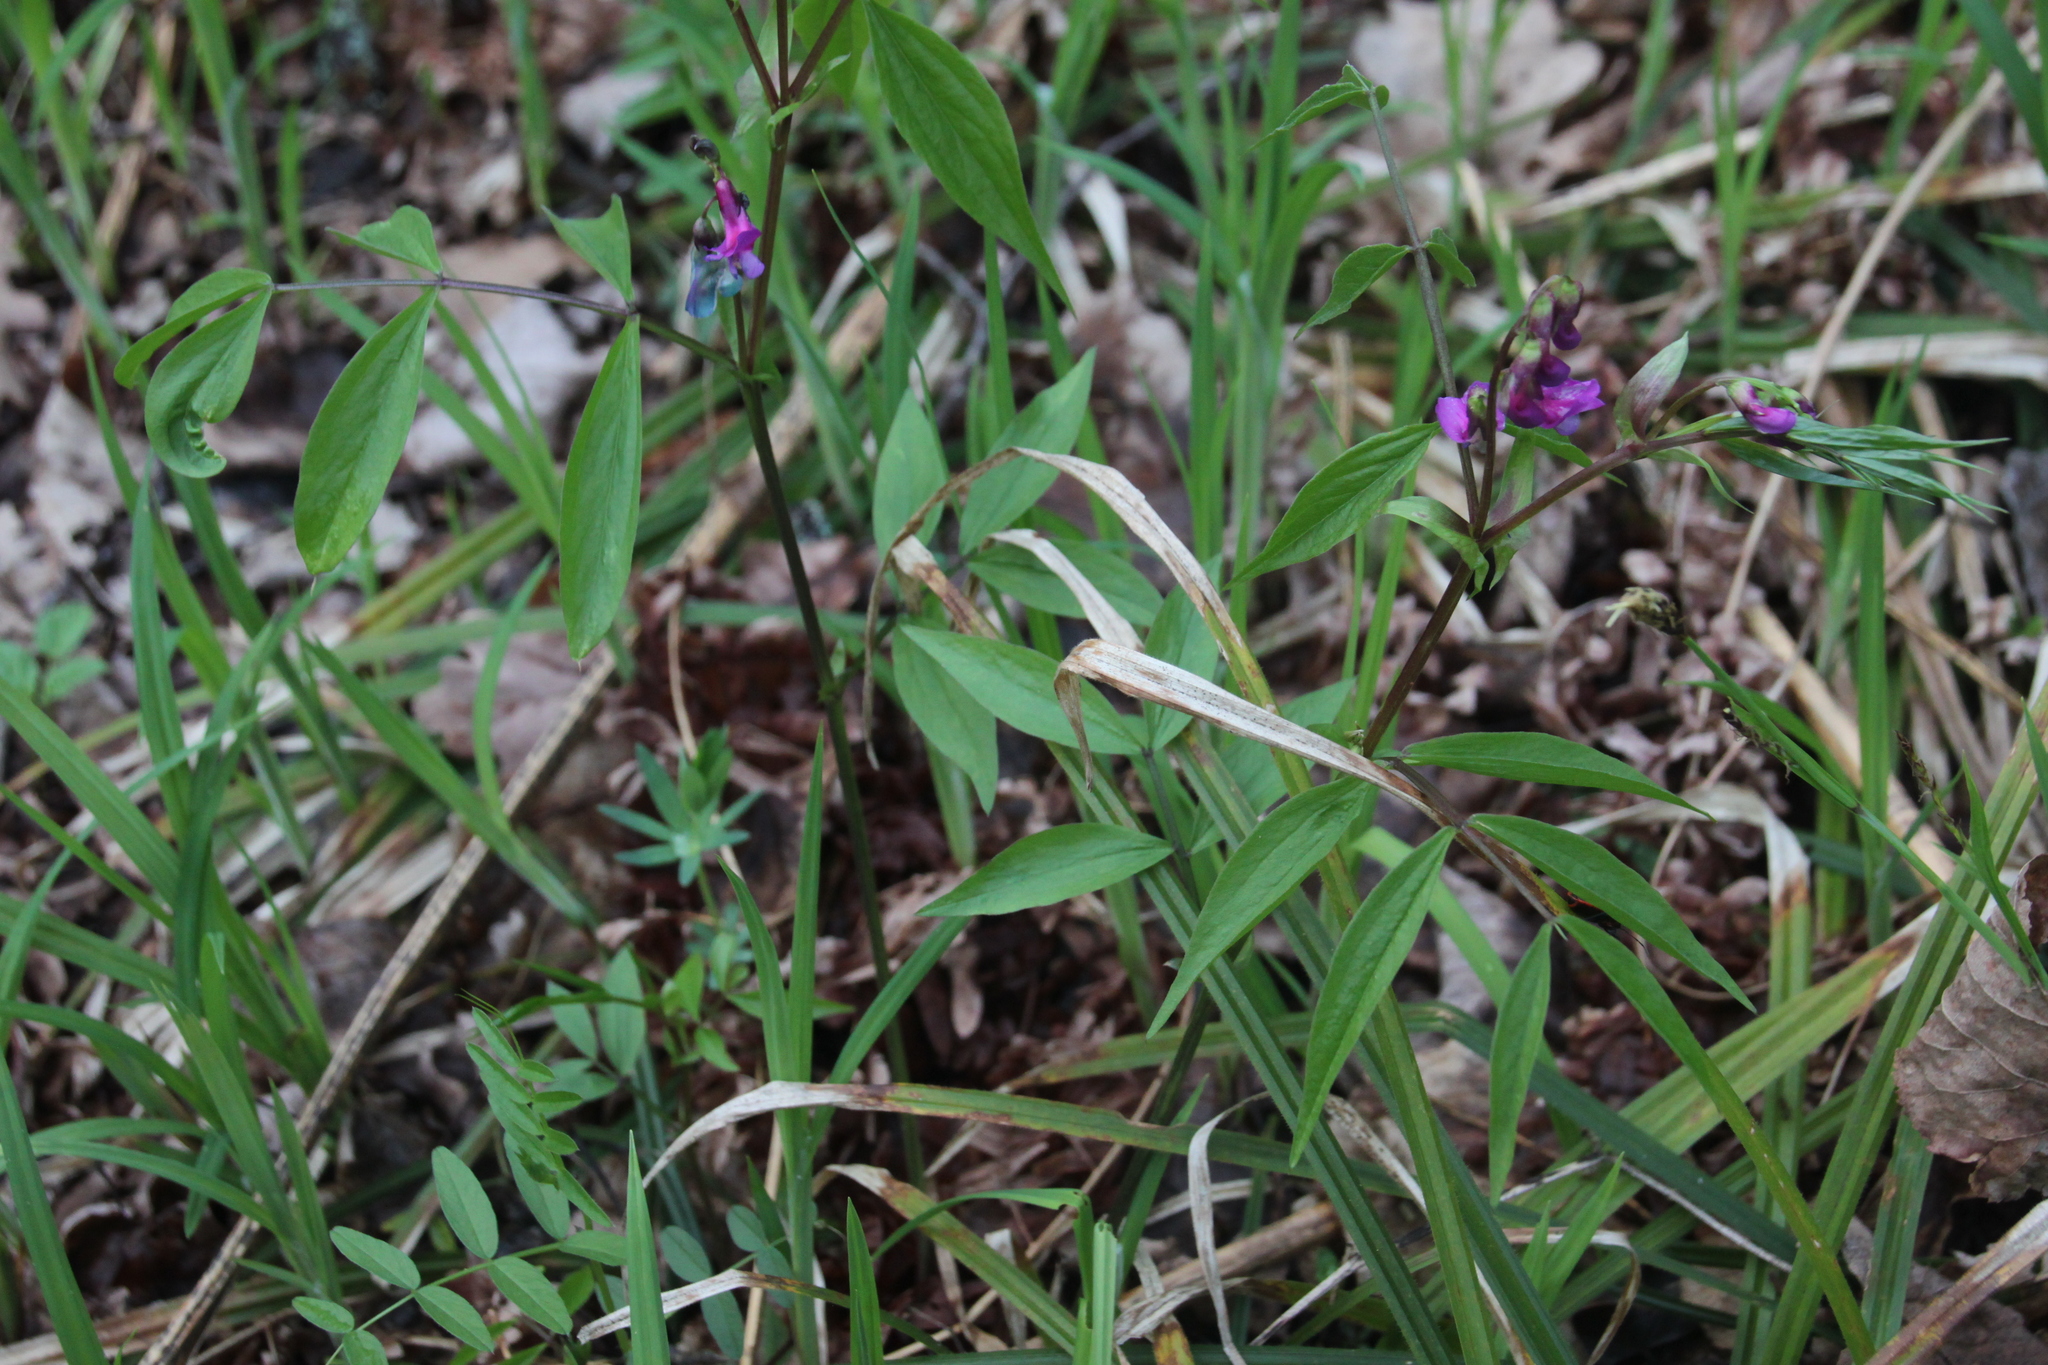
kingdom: Plantae
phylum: Tracheophyta
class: Magnoliopsida
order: Fabales
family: Fabaceae
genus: Lathyrus
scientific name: Lathyrus vernus
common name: Spring pea
